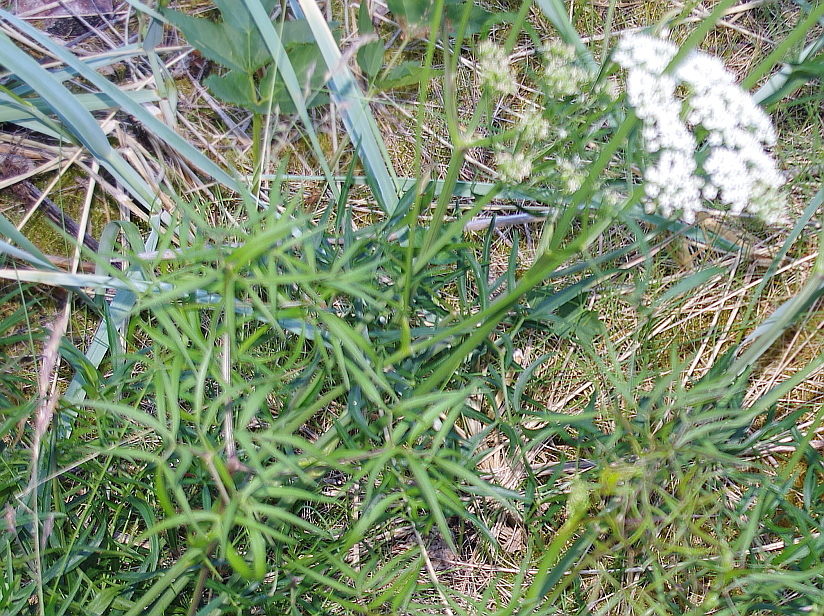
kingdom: Plantae
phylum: Tracheophyta
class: Magnoliopsida
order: Apiales
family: Apiaceae
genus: Cenolophium
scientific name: Cenolophium fischeri
